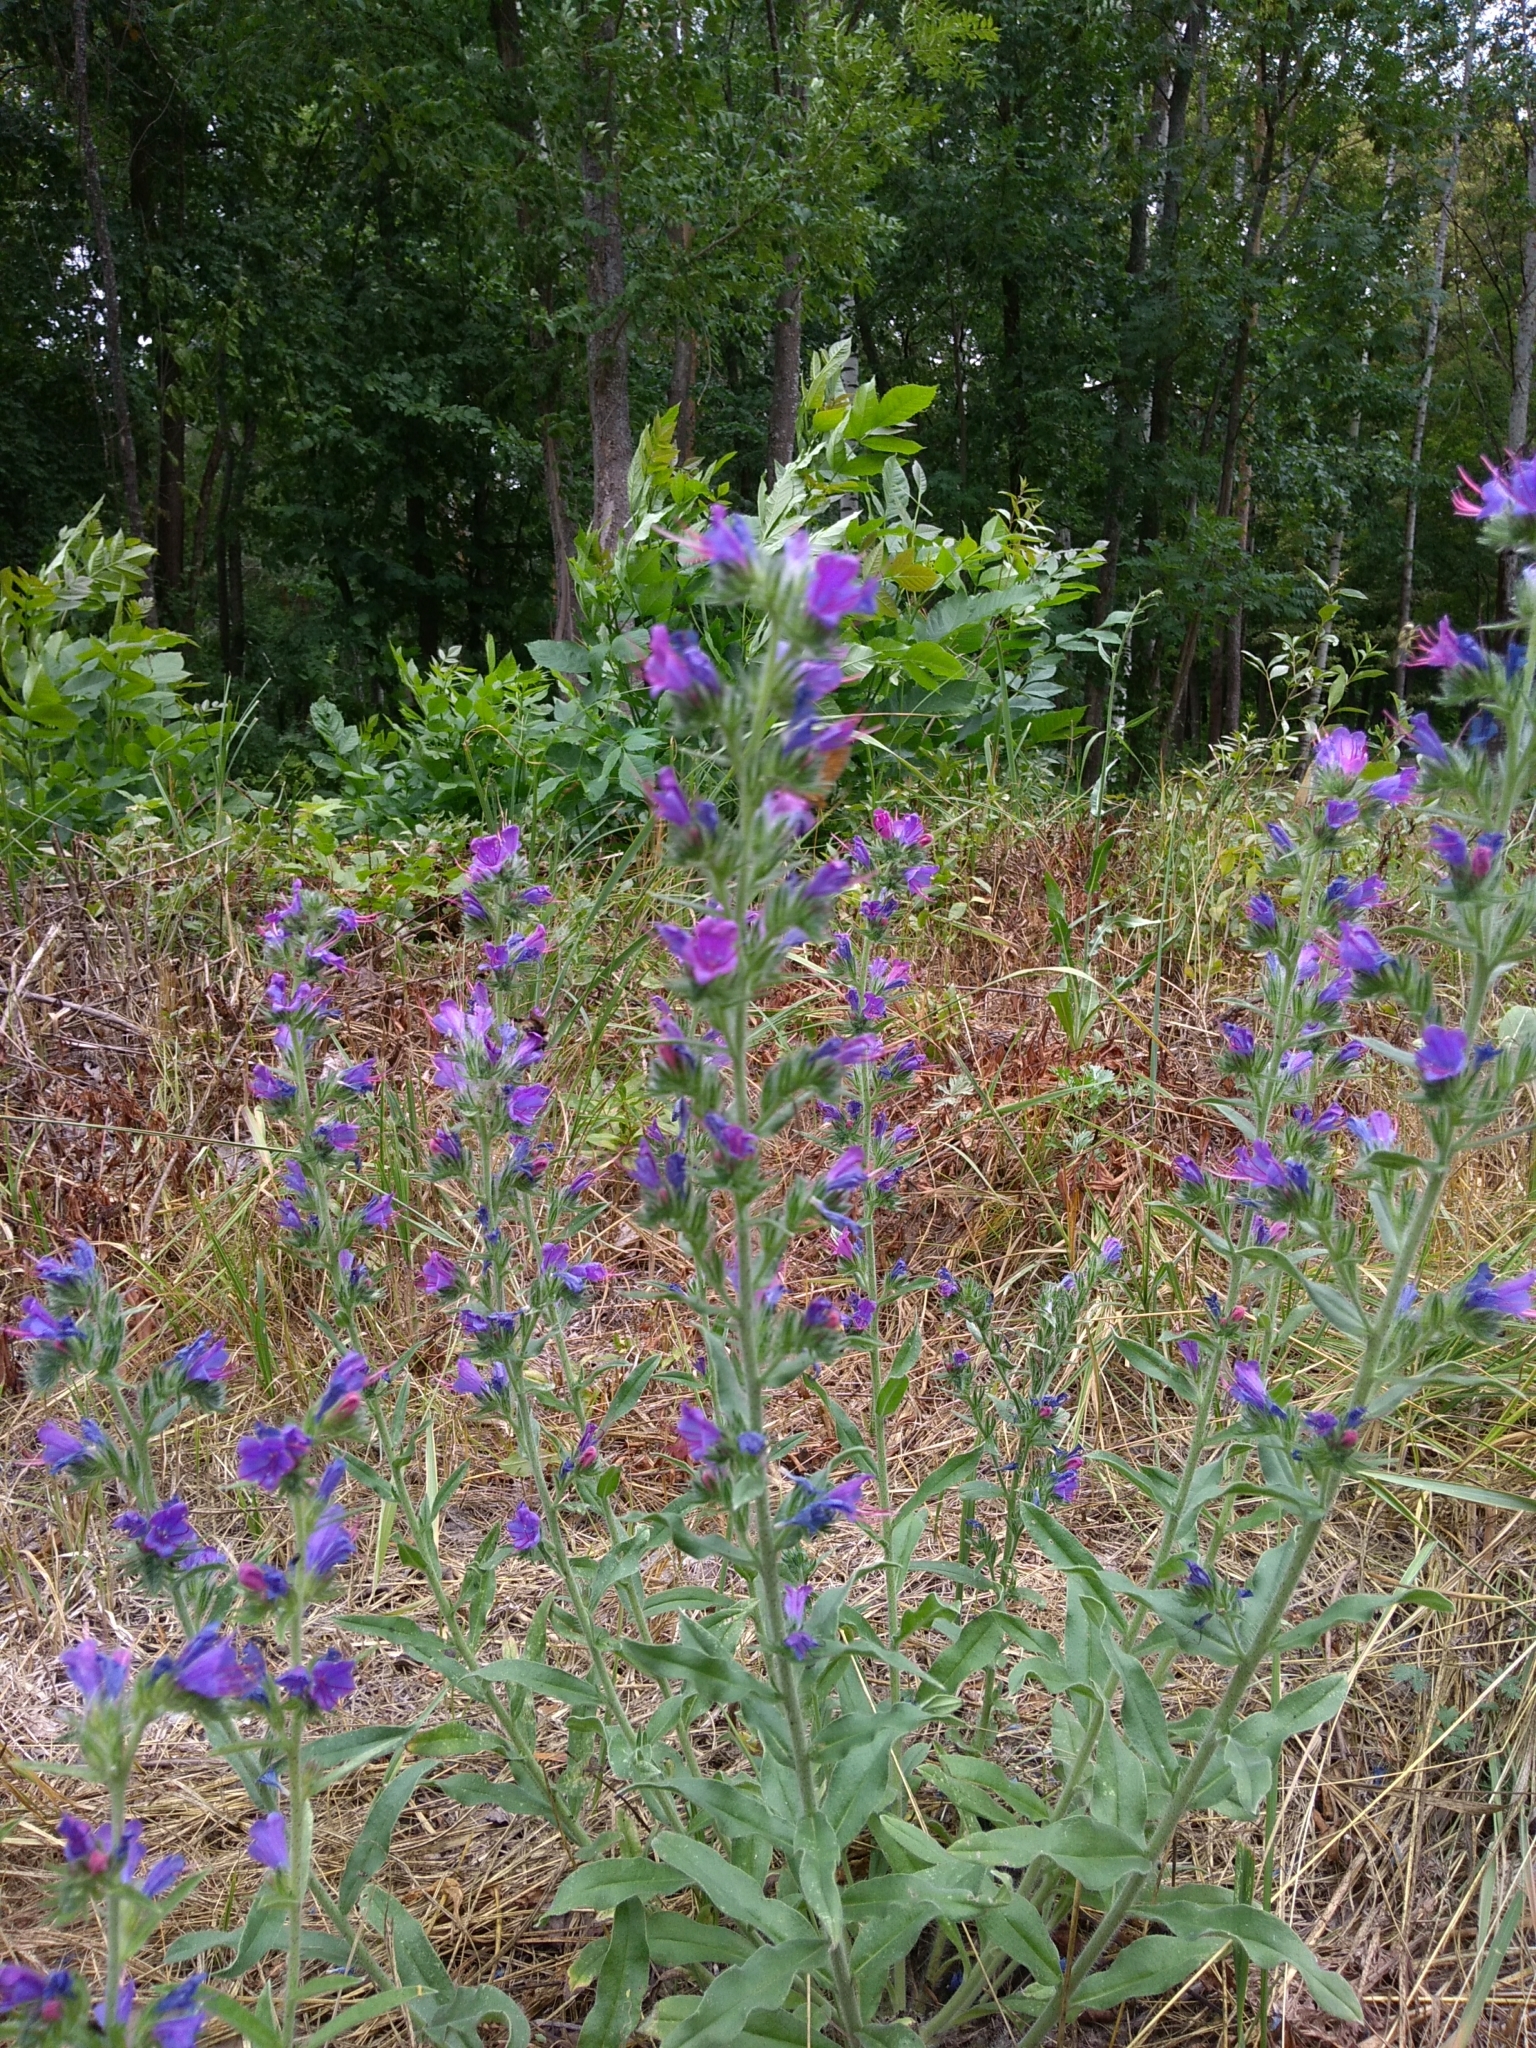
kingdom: Plantae
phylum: Tracheophyta
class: Magnoliopsida
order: Boraginales
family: Boraginaceae
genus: Echium
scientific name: Echium vulgare
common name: Common viper's bugloss
